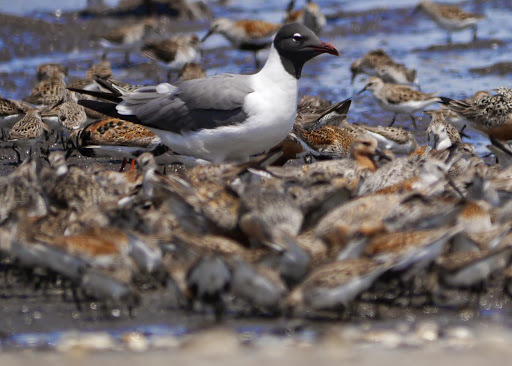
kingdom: Animalia
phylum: Chordata
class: Aves
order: Charadriiformes
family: Laridae
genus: Leucophaeus
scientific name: Leucophaeus atricilla
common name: Laughing gull
